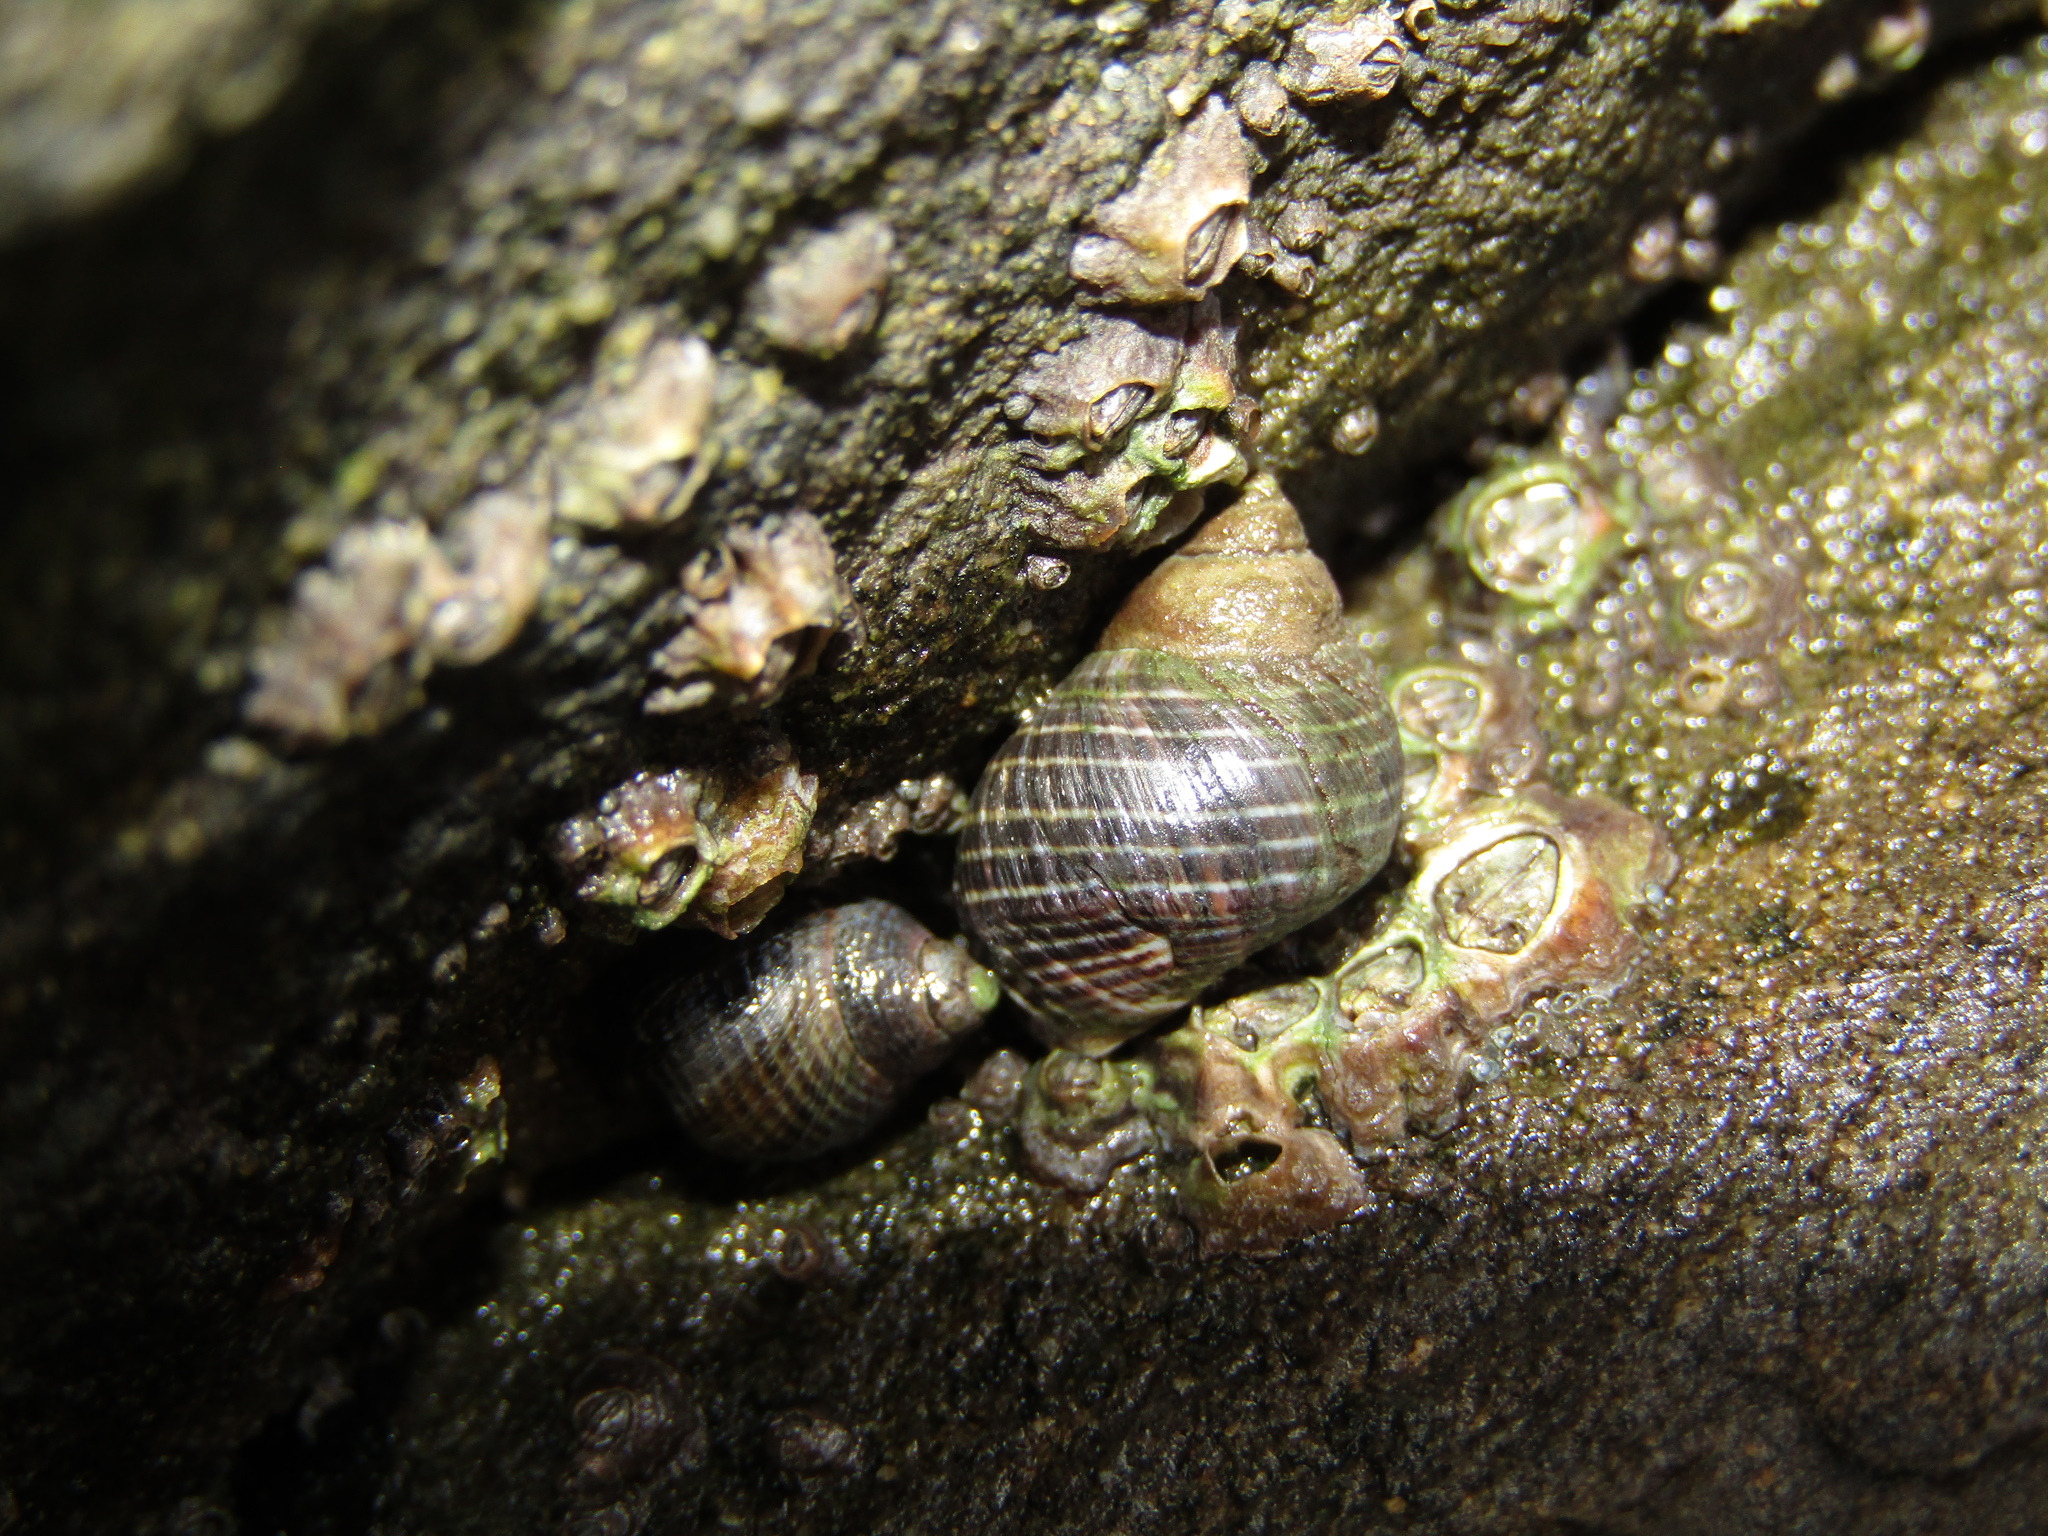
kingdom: Animalia
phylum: Mollusca
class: Gastropoda
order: Littorinimorpha
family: Littorinidae
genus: Austrolittorina
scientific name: Austrolittorina cincta
